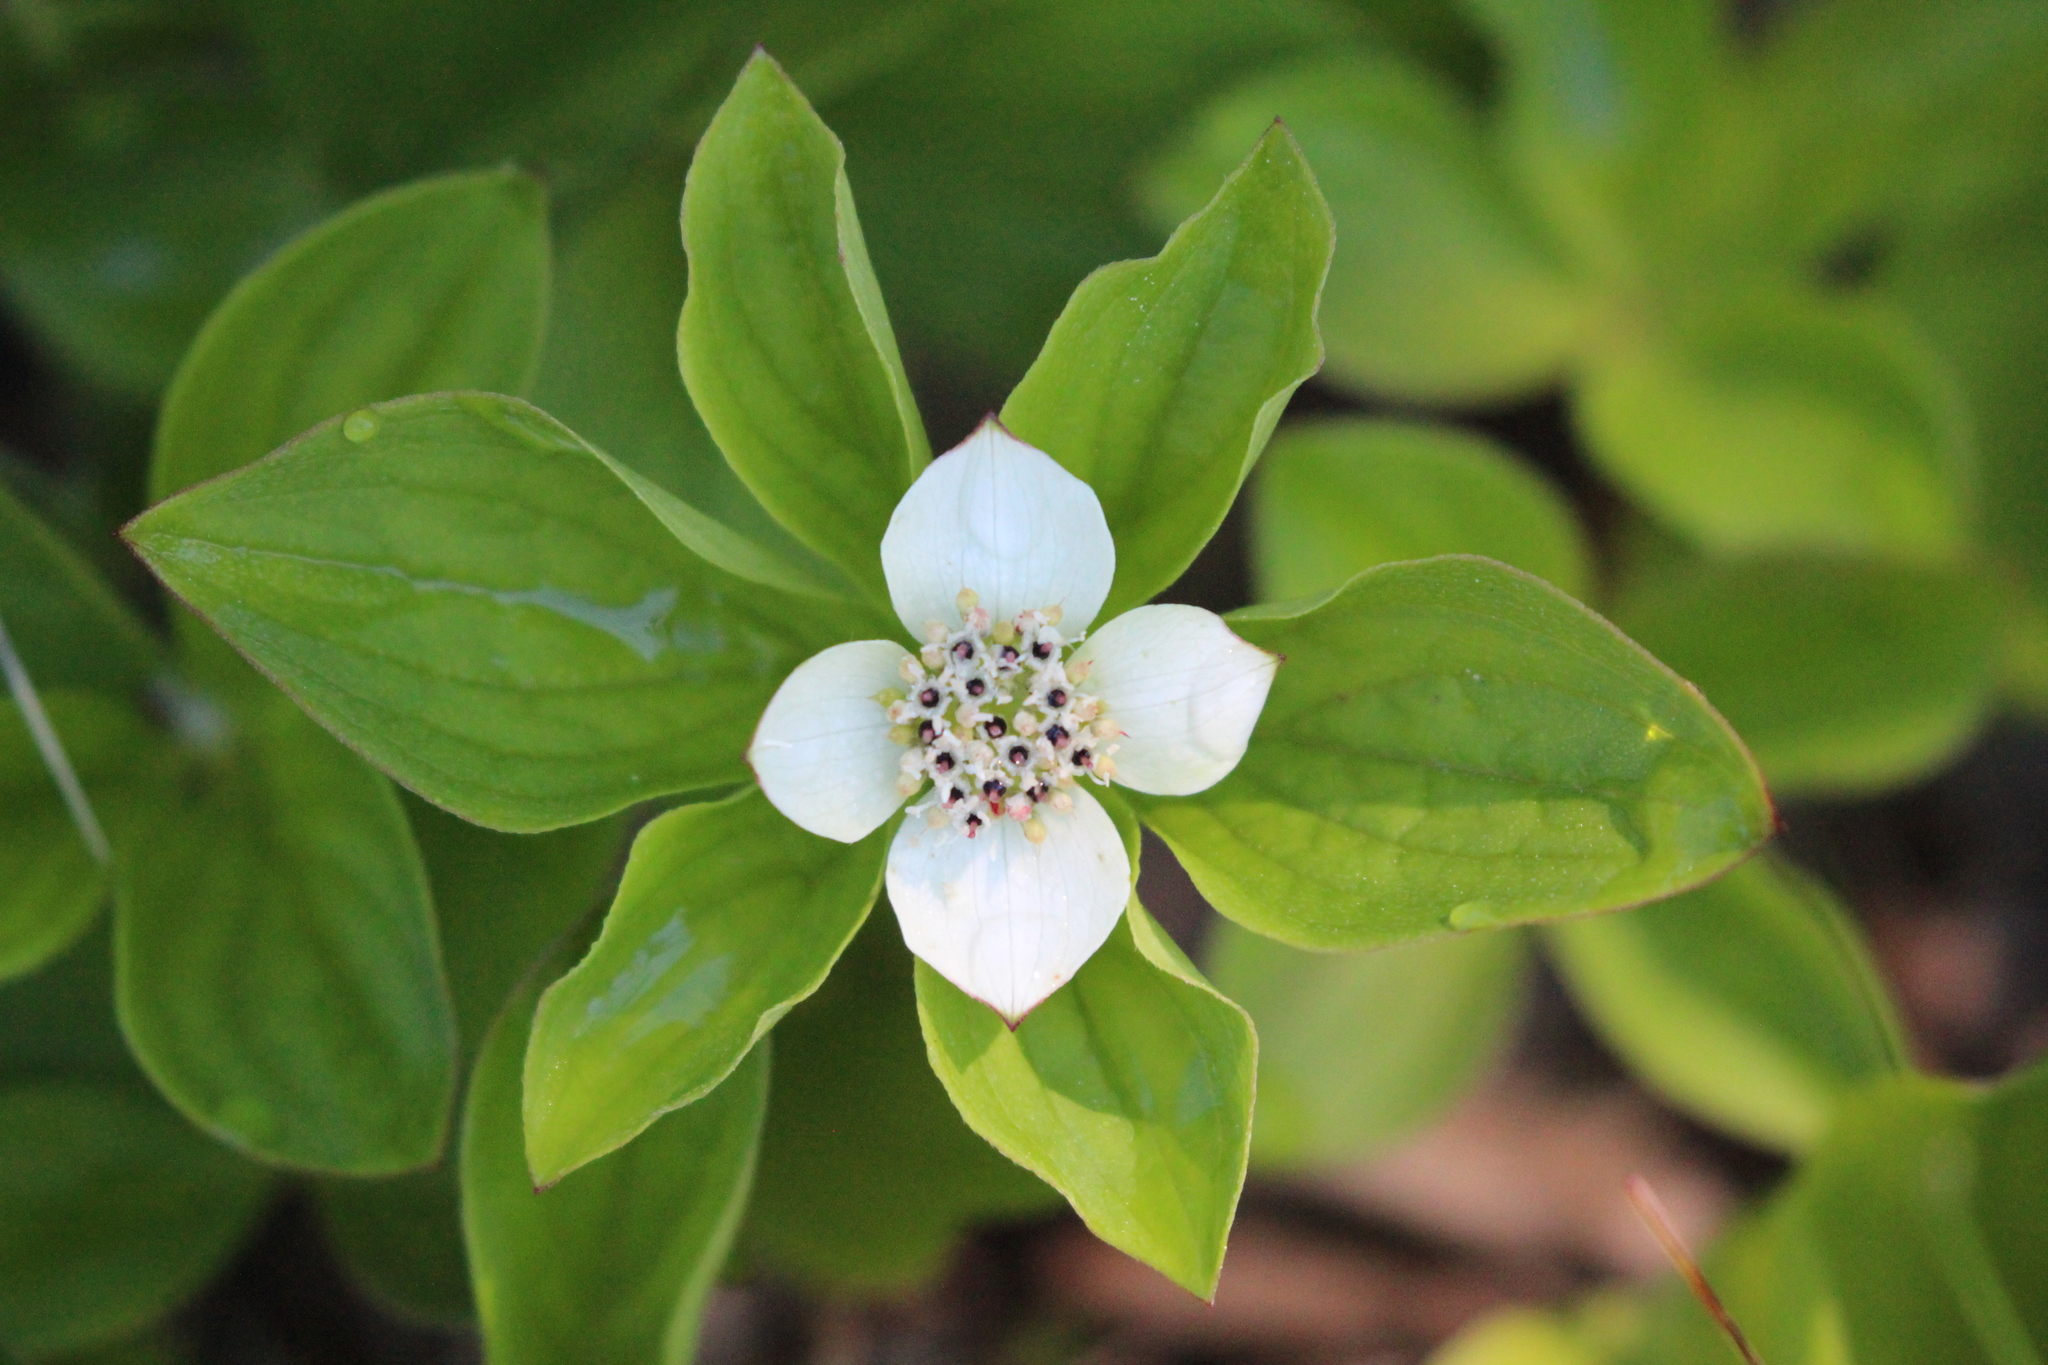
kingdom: Plantae
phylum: Tracheophyta
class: Magnoliopsida
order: Cornales
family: Cornaceae
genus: Cornus
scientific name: Cornus canadensis
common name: Creeping dogwood
